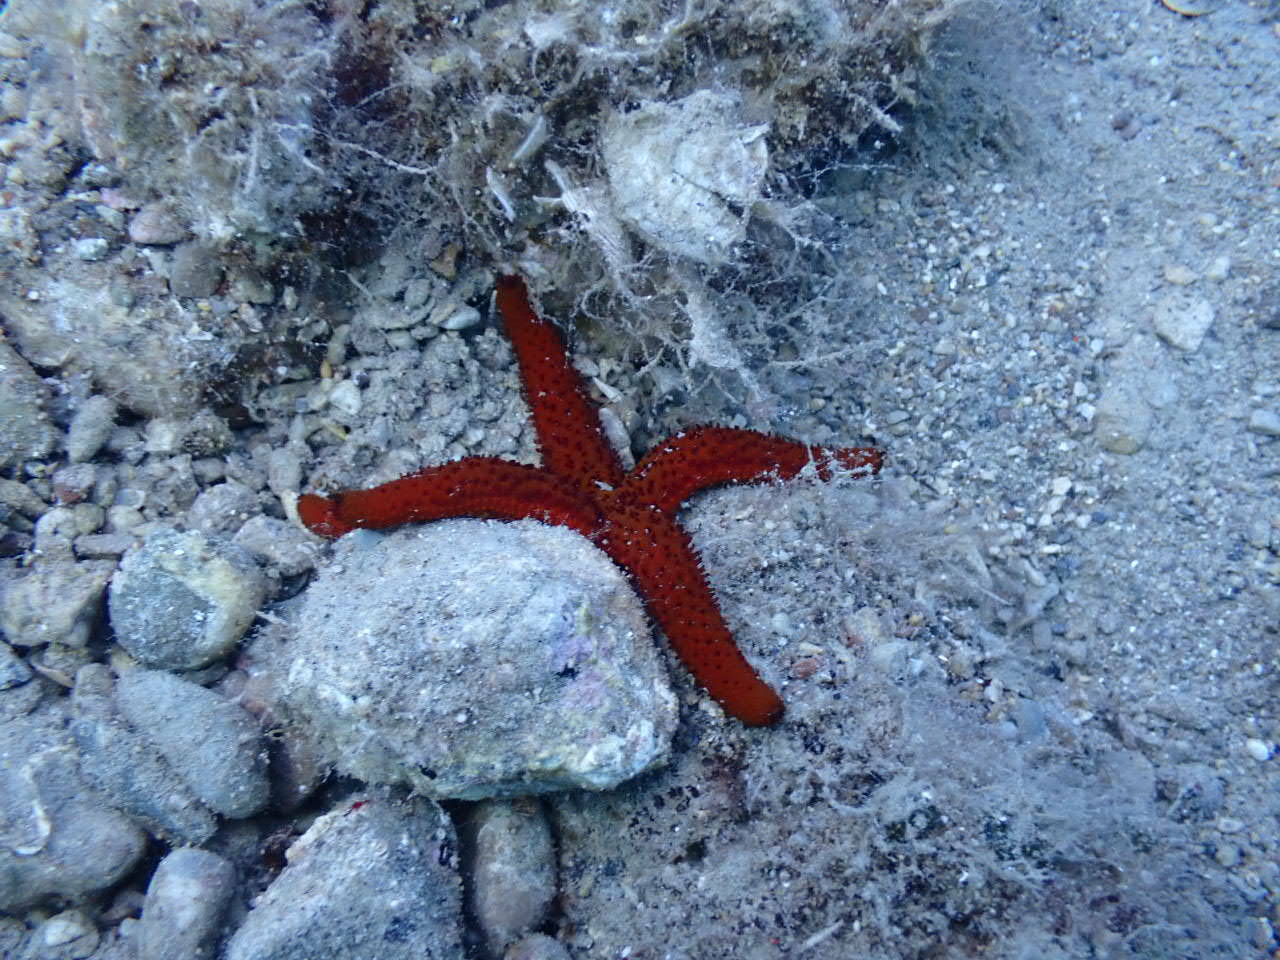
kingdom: Animalia
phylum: Echinodermata
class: Asteroidea
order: Spinulosida
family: Echinasteridae
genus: Echinaster
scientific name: Echinaster sepositus
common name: Red starfish
